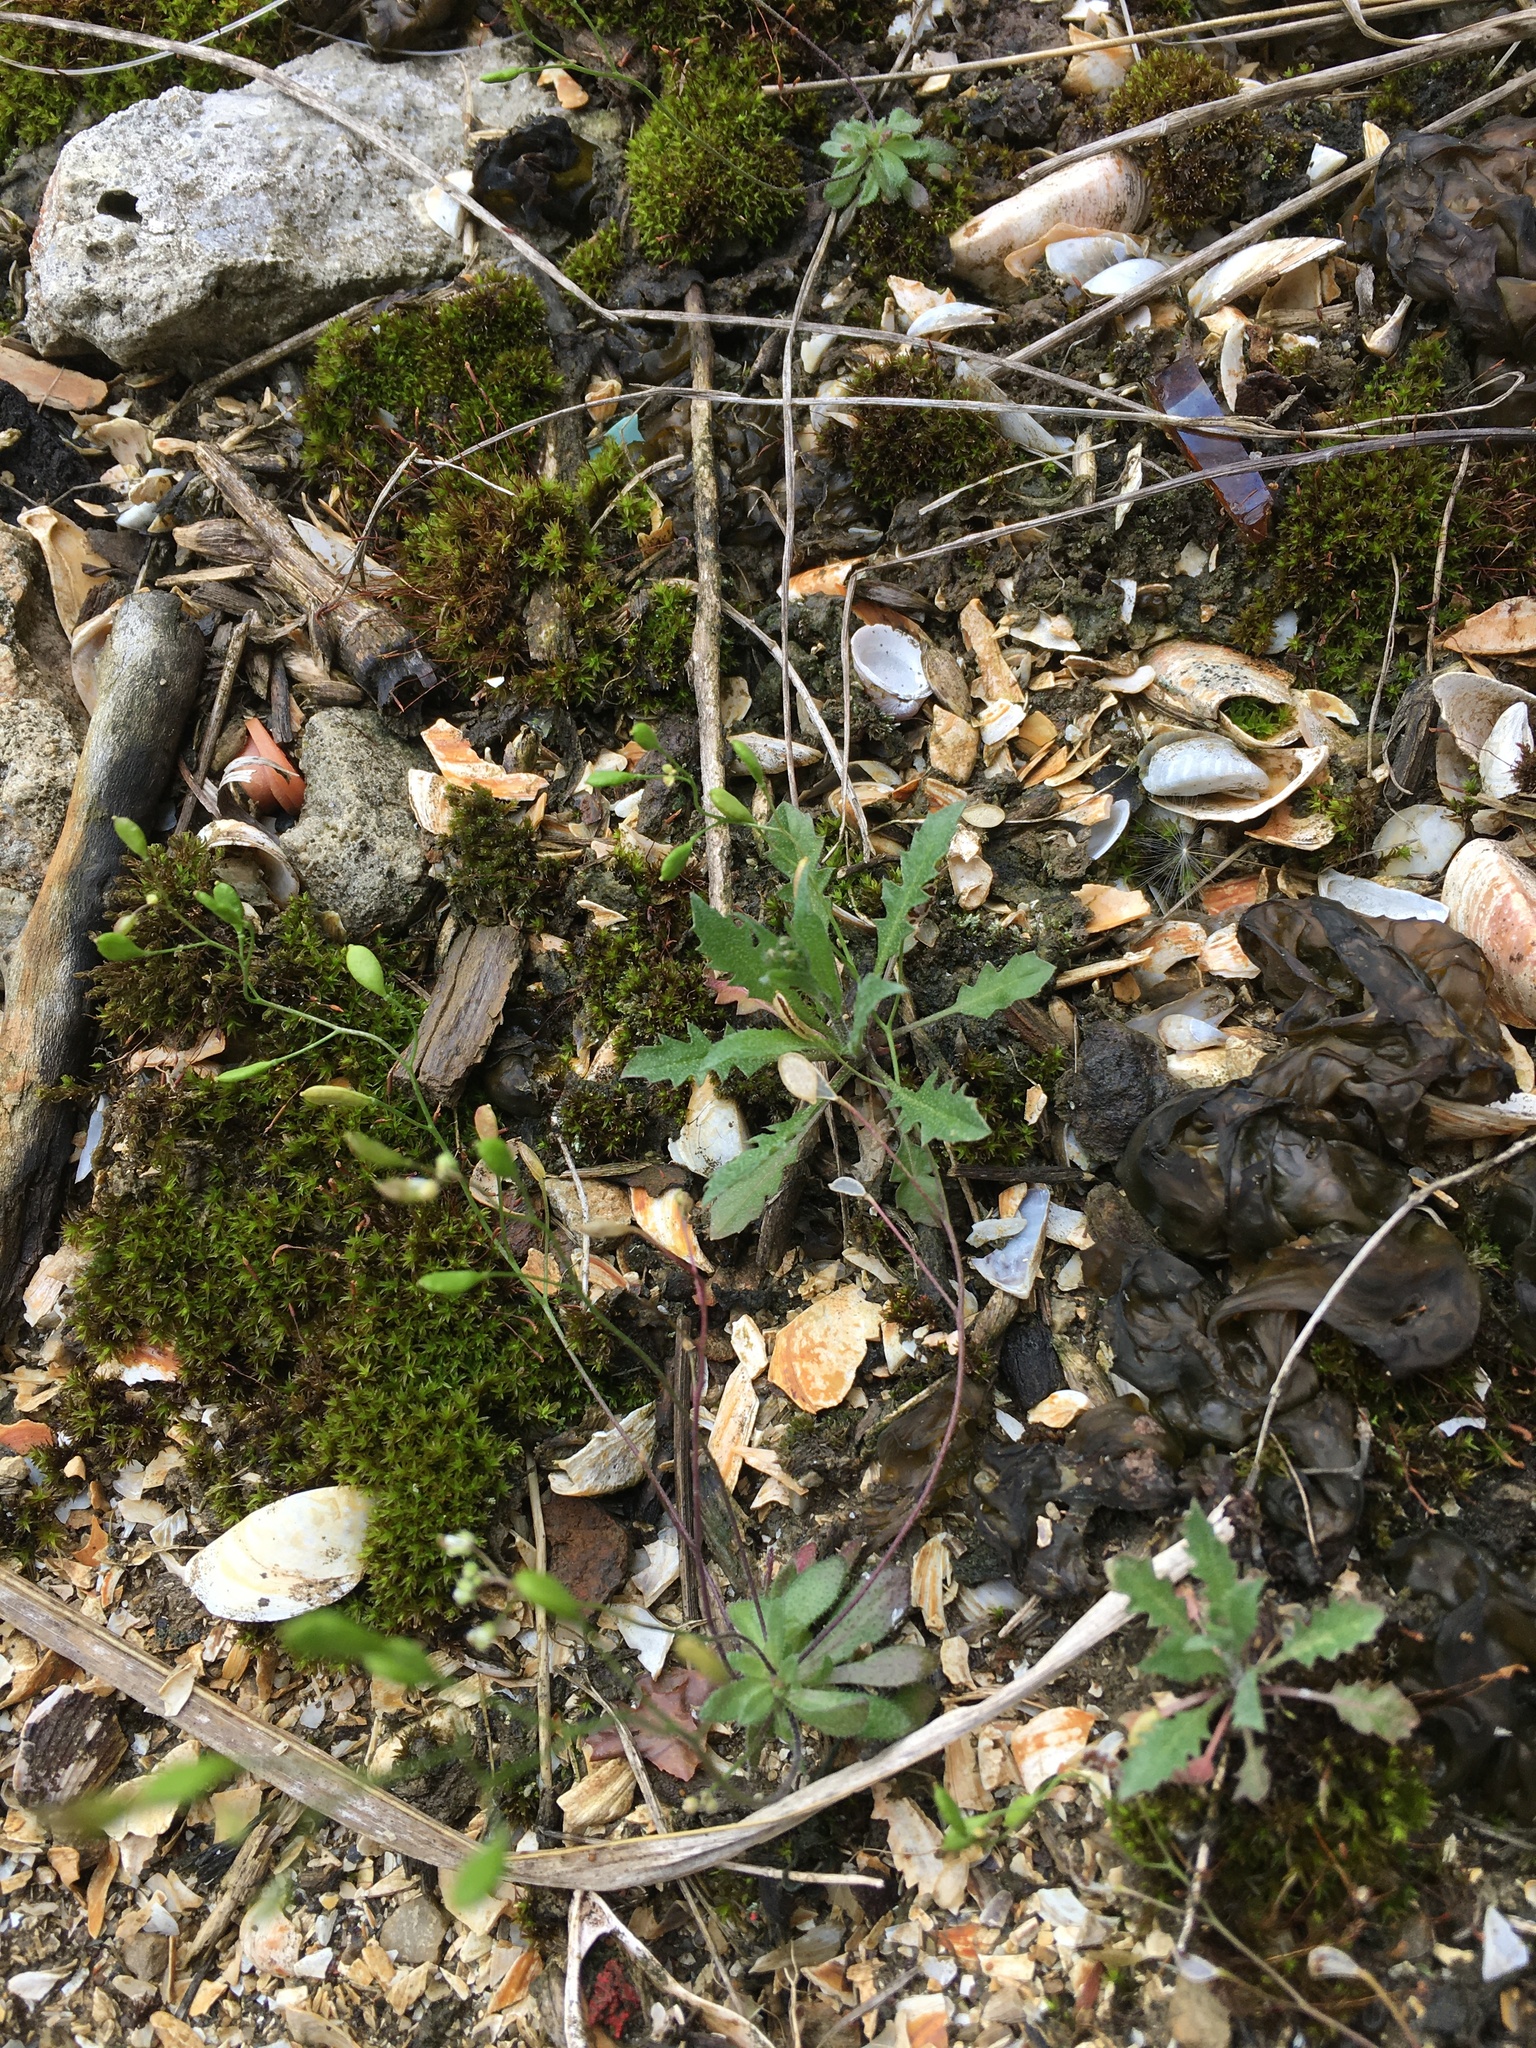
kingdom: Plantae
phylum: Tracheophyta
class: Magnoliopsida
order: Brassicales
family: Brassicaceae
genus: Draba
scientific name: Draba verna
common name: Spring draba
